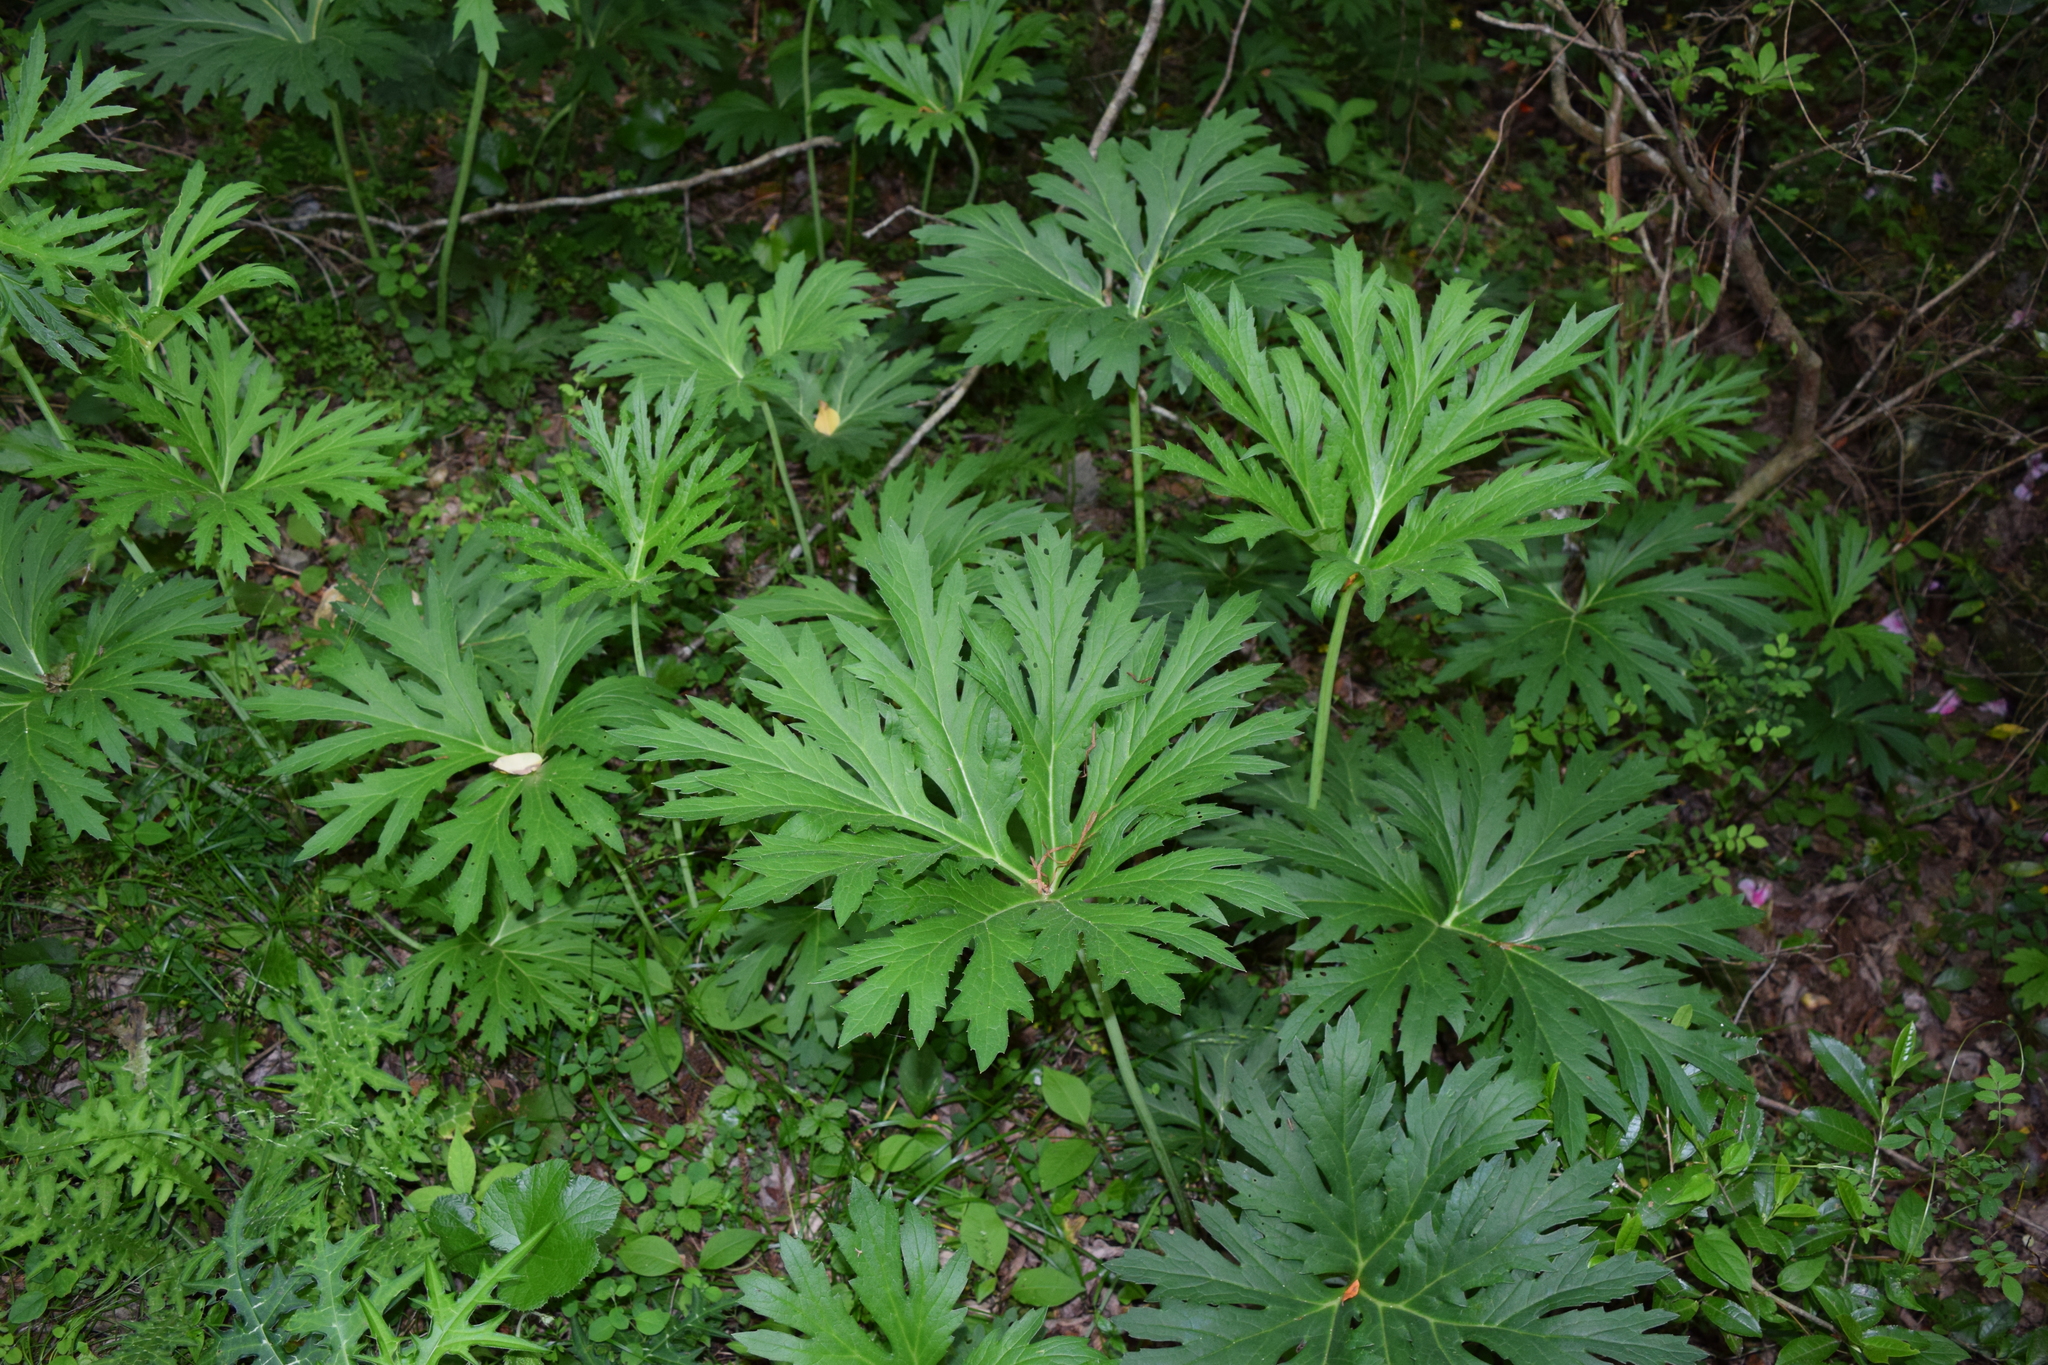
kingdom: Plantae
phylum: Tracheophyta
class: Magnoliopsida
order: Asterales
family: Asteraceae
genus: Ligularia
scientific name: Ligularia japonica
